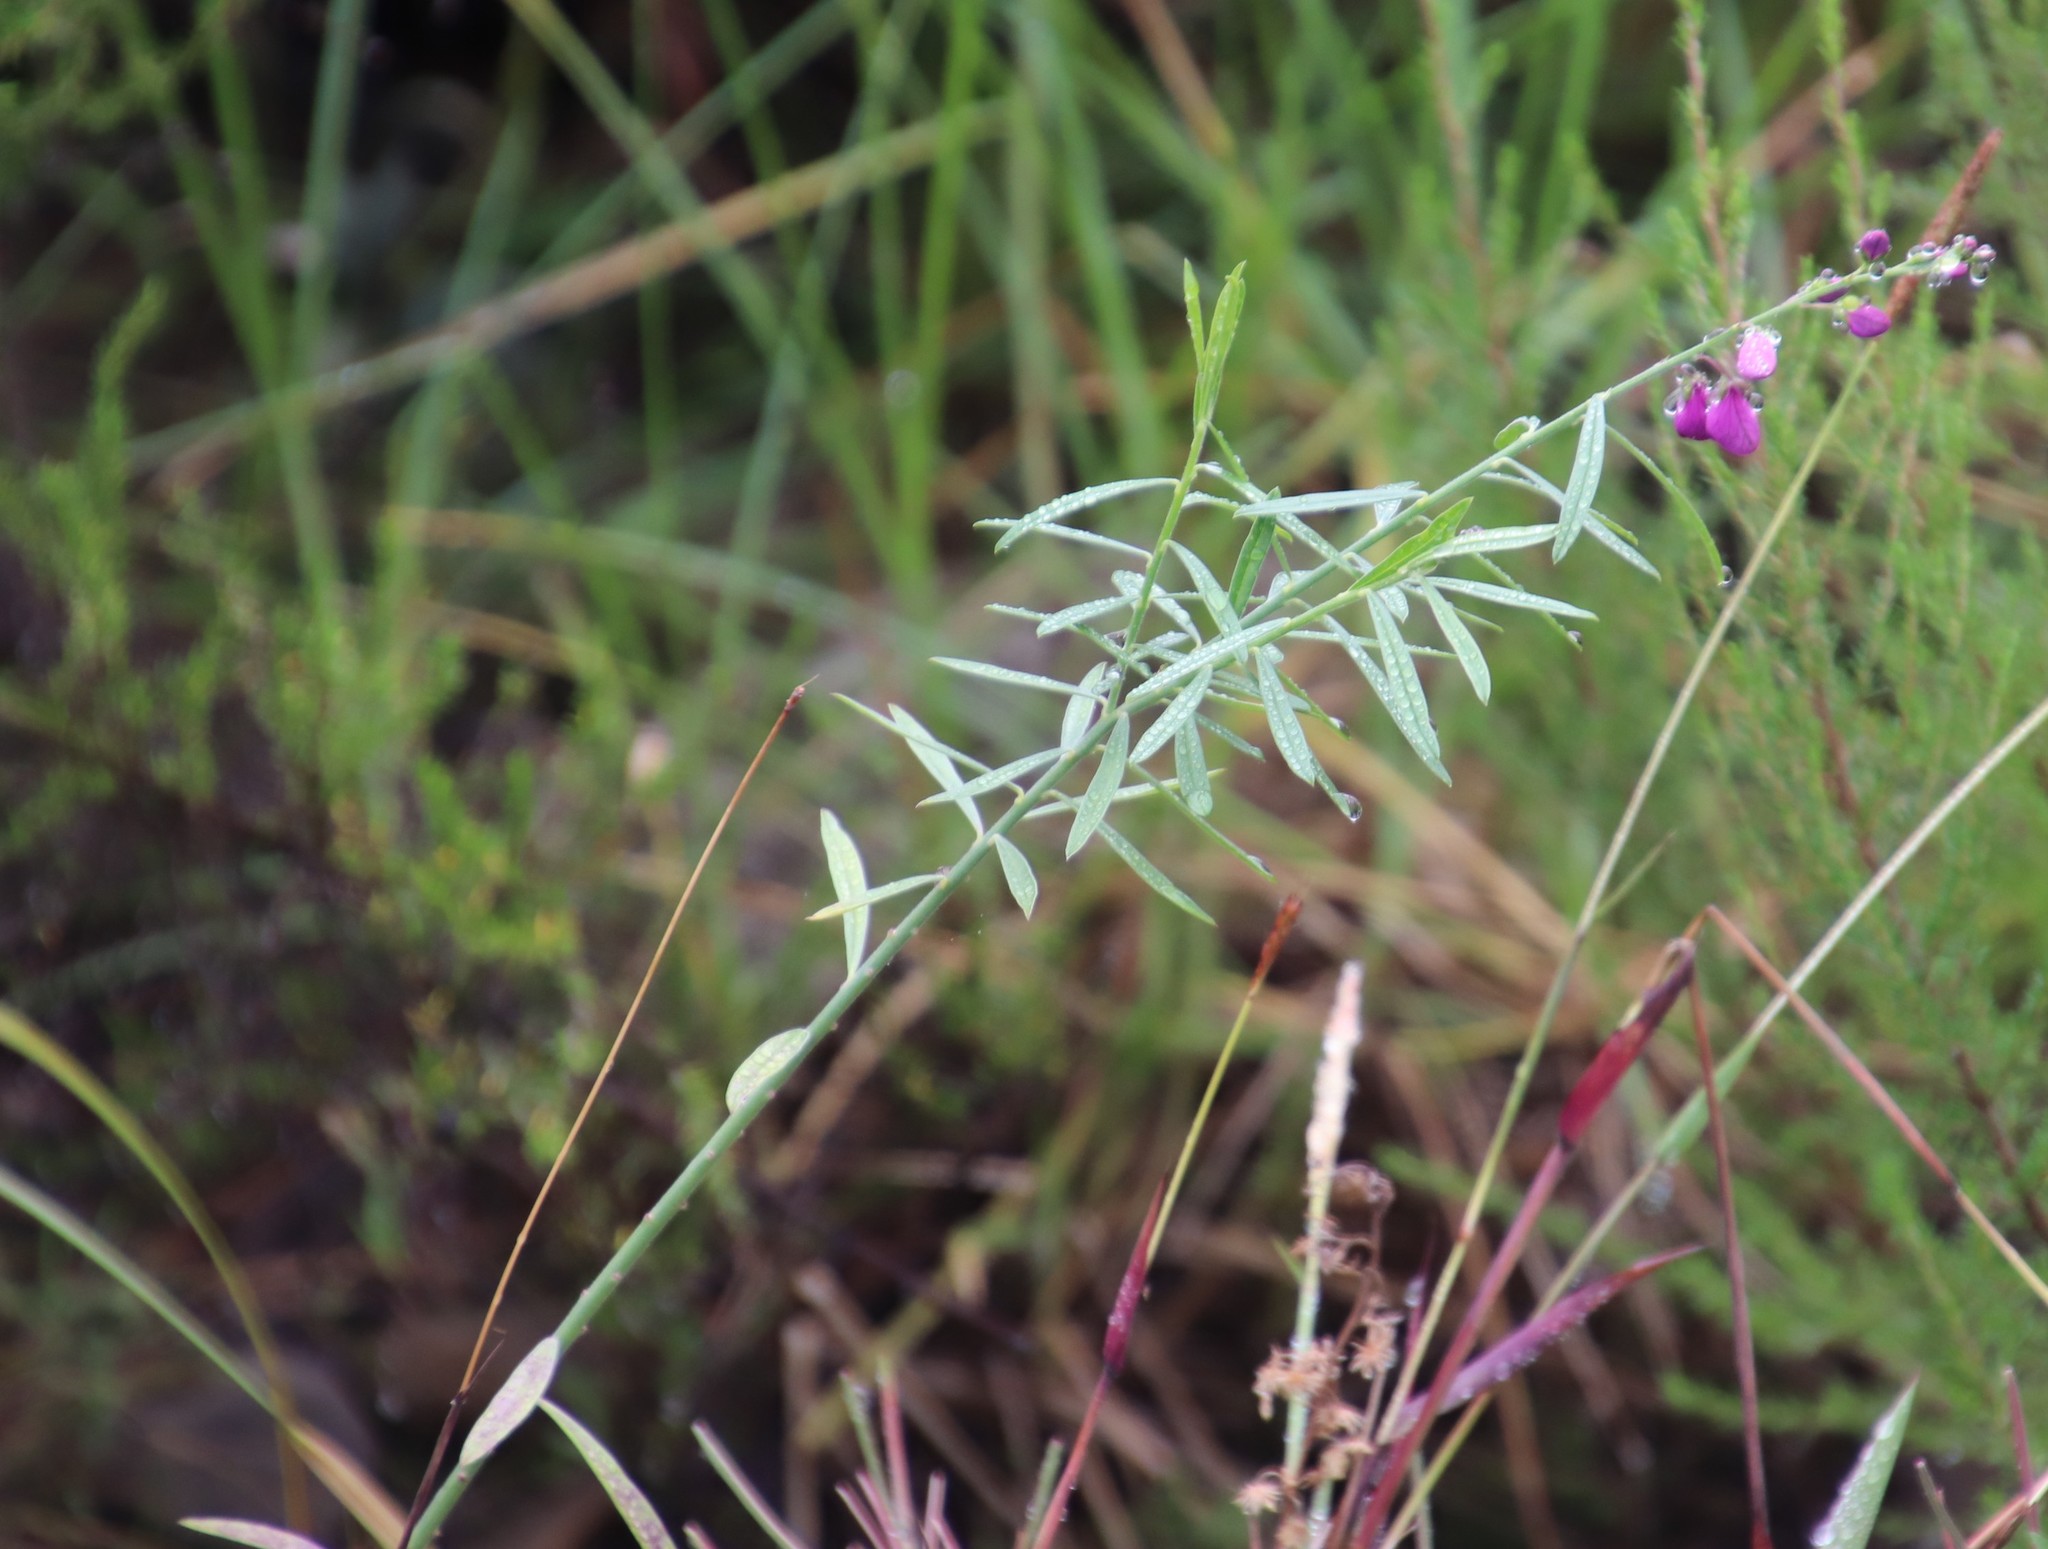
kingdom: Plantae
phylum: Tracheophyta
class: Magnoliopsida
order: Fabales
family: Polygalaceae
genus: Polygala
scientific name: Polygala virgata
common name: Milkwort
